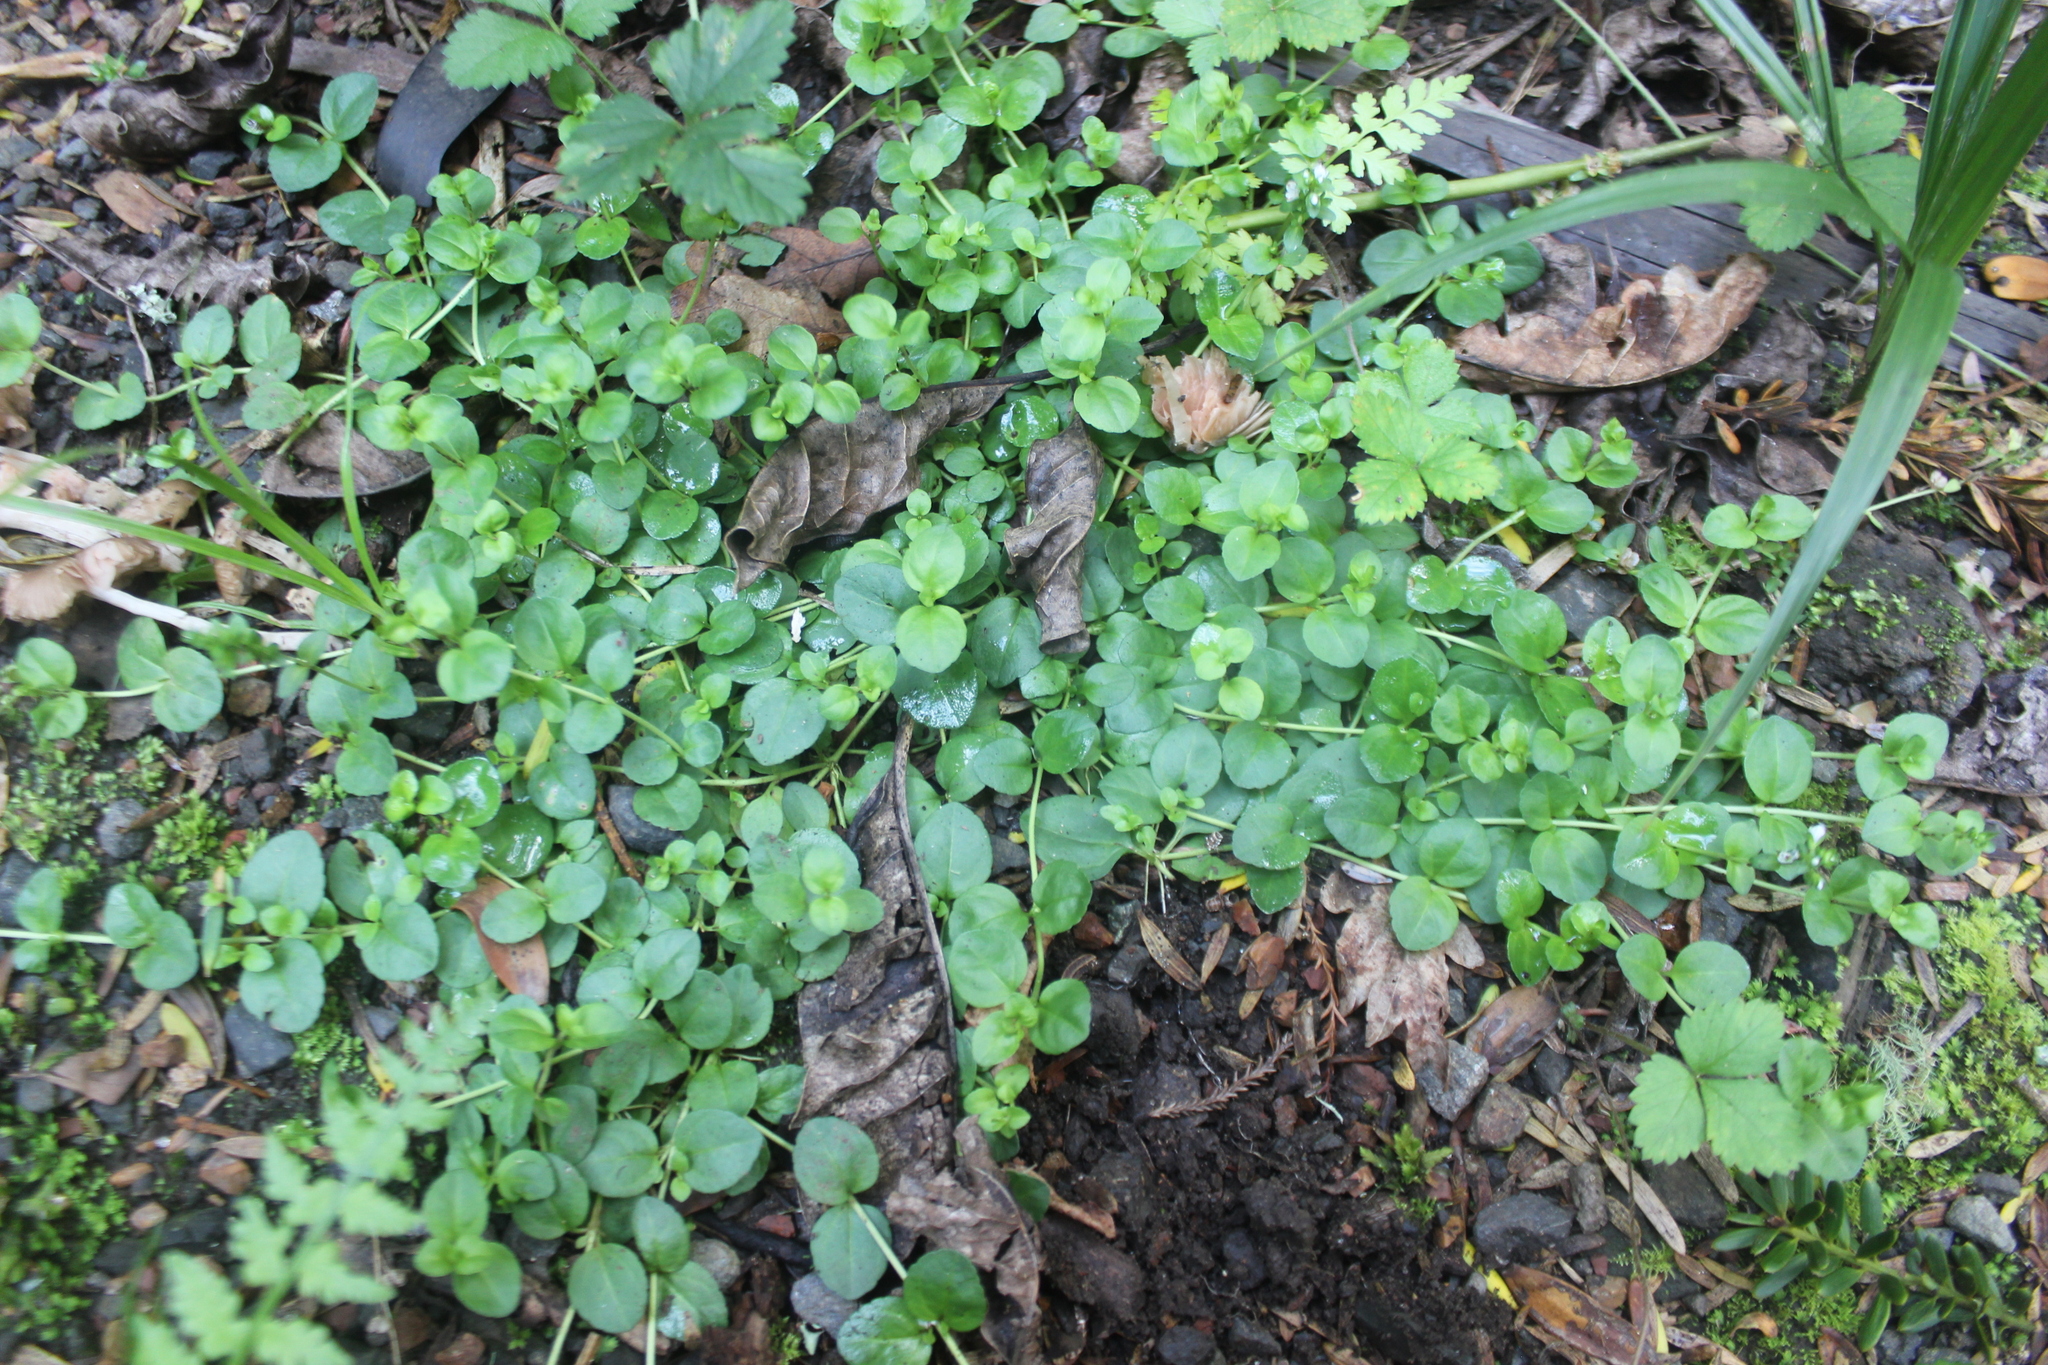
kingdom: Plantae
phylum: Tracheophyta
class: Magnoliopsida
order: Lamiales
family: Plantaginaceae
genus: Veronica
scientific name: Veronica serpyllifolia
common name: Thyme-leaved speedwell
